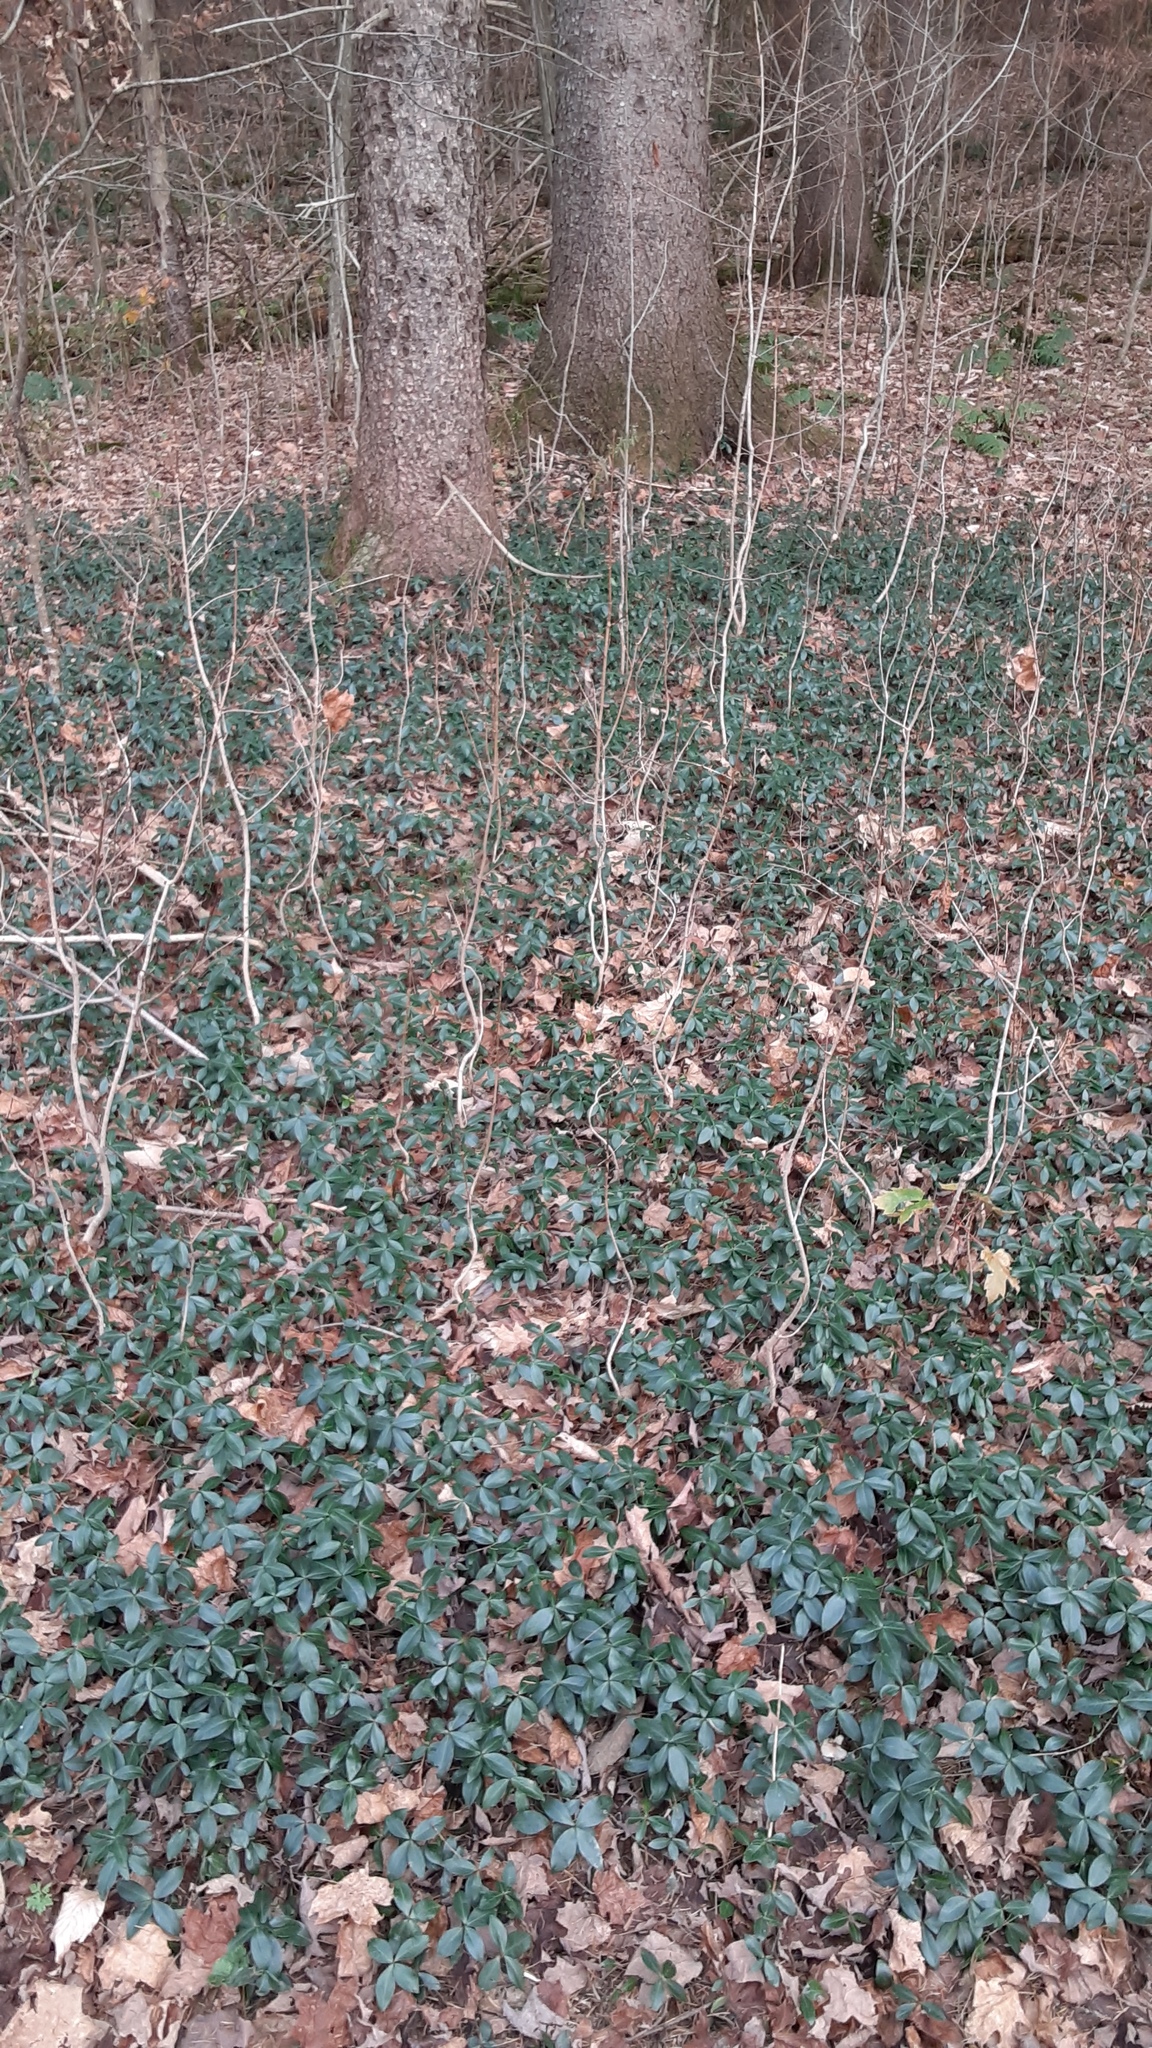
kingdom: Plantae
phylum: Tracheophyta
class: Magnoliopsida
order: Gentianales
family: Apocynaceae
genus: Vinca
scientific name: Vinca minor
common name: Lesser periwinkle
